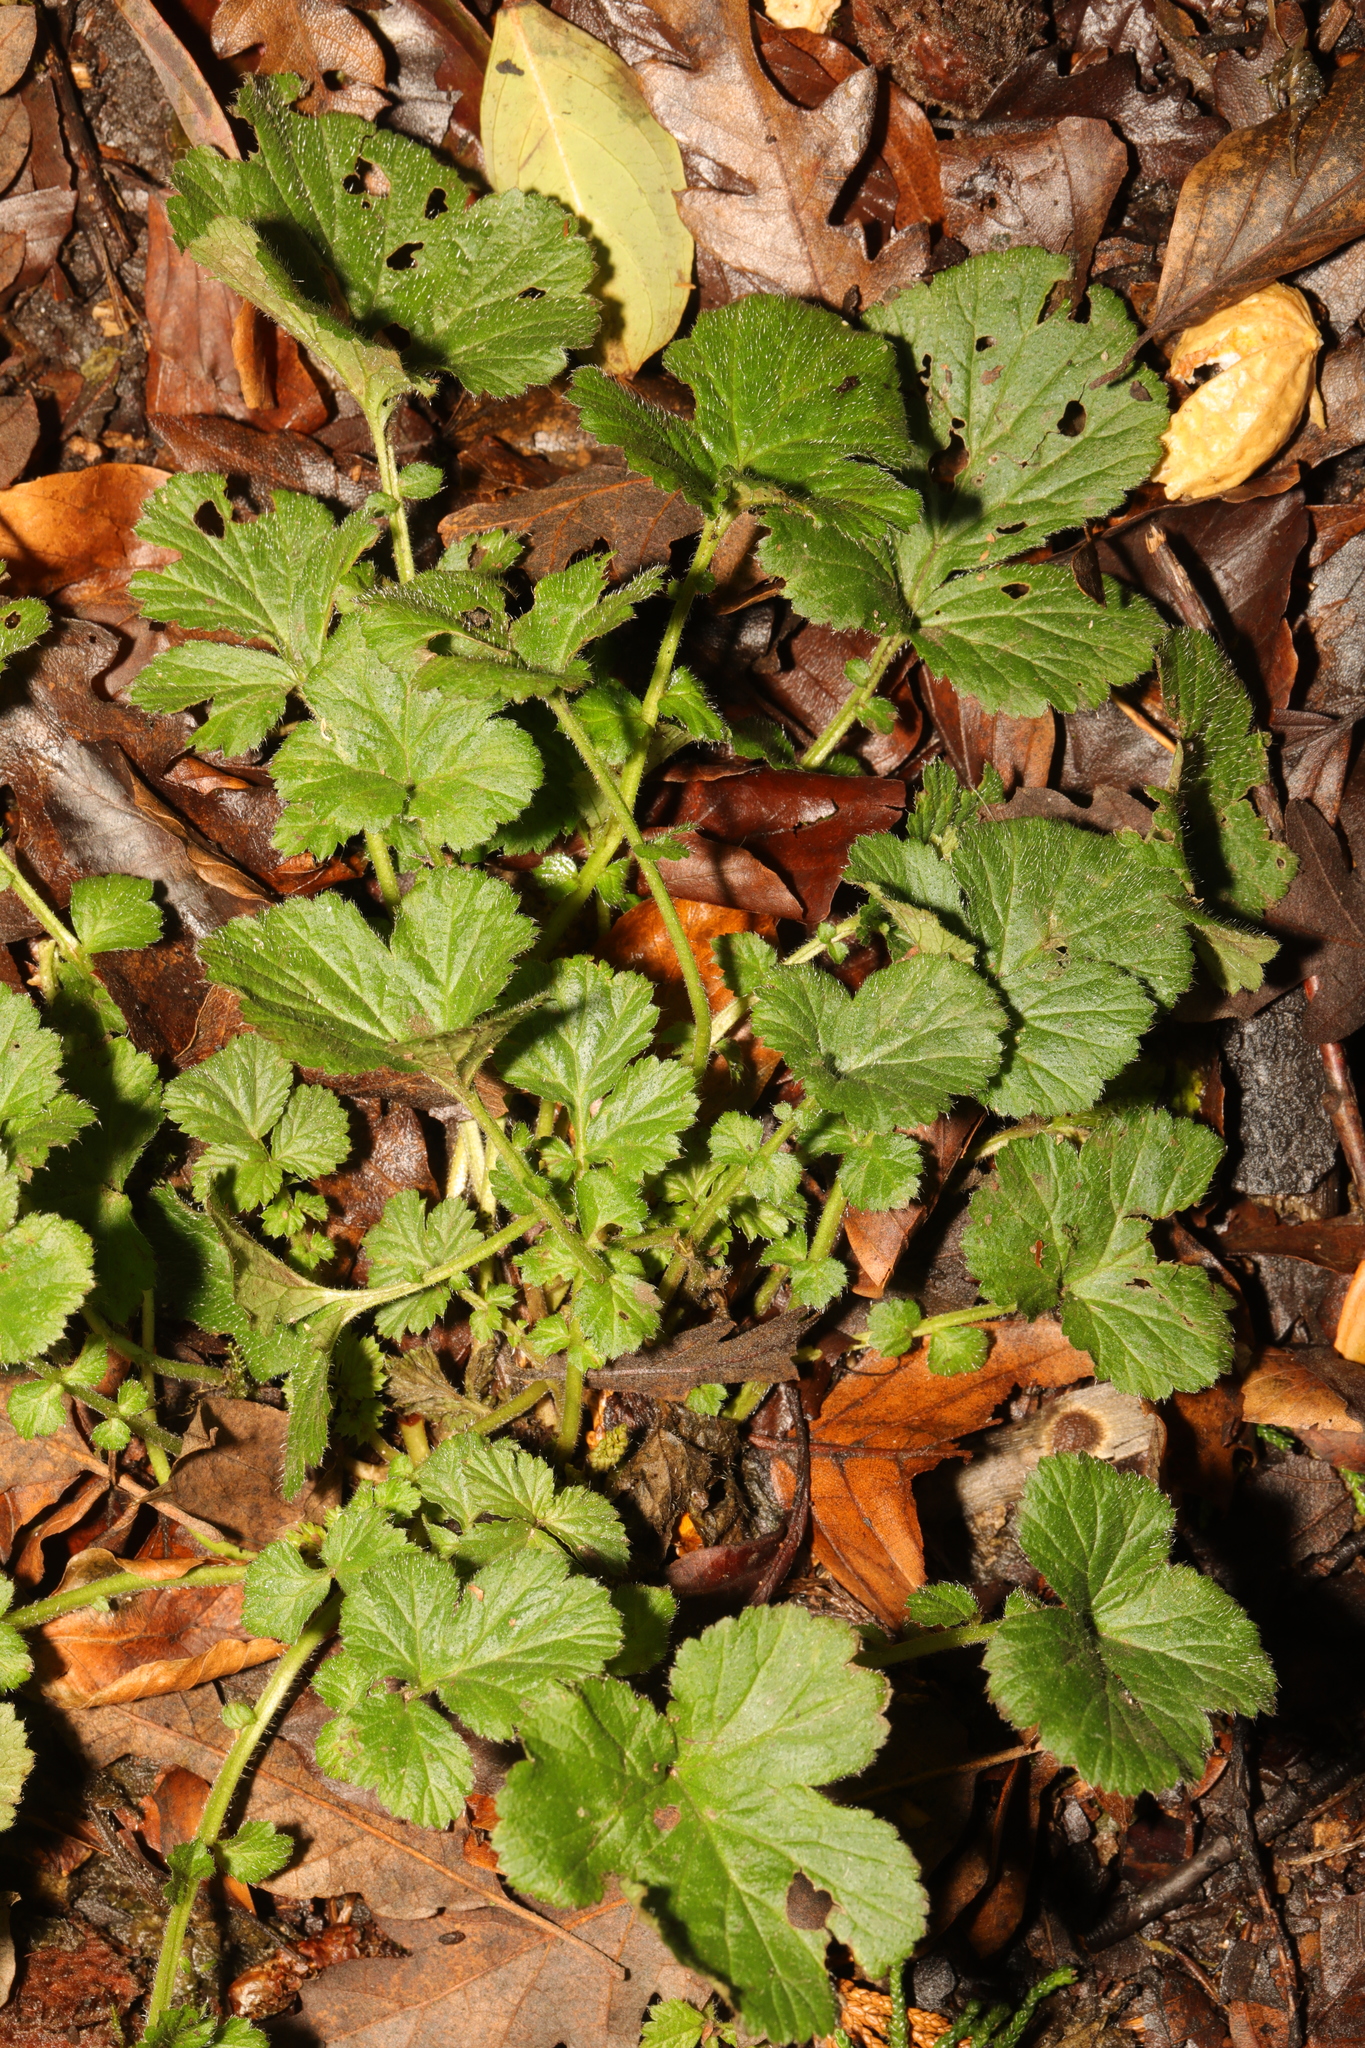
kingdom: Plantae
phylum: Tracheophyta
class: Magnoliopsida
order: Rosales
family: Rosaceae
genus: Geum
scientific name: Geum urbanum
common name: Wood avens
